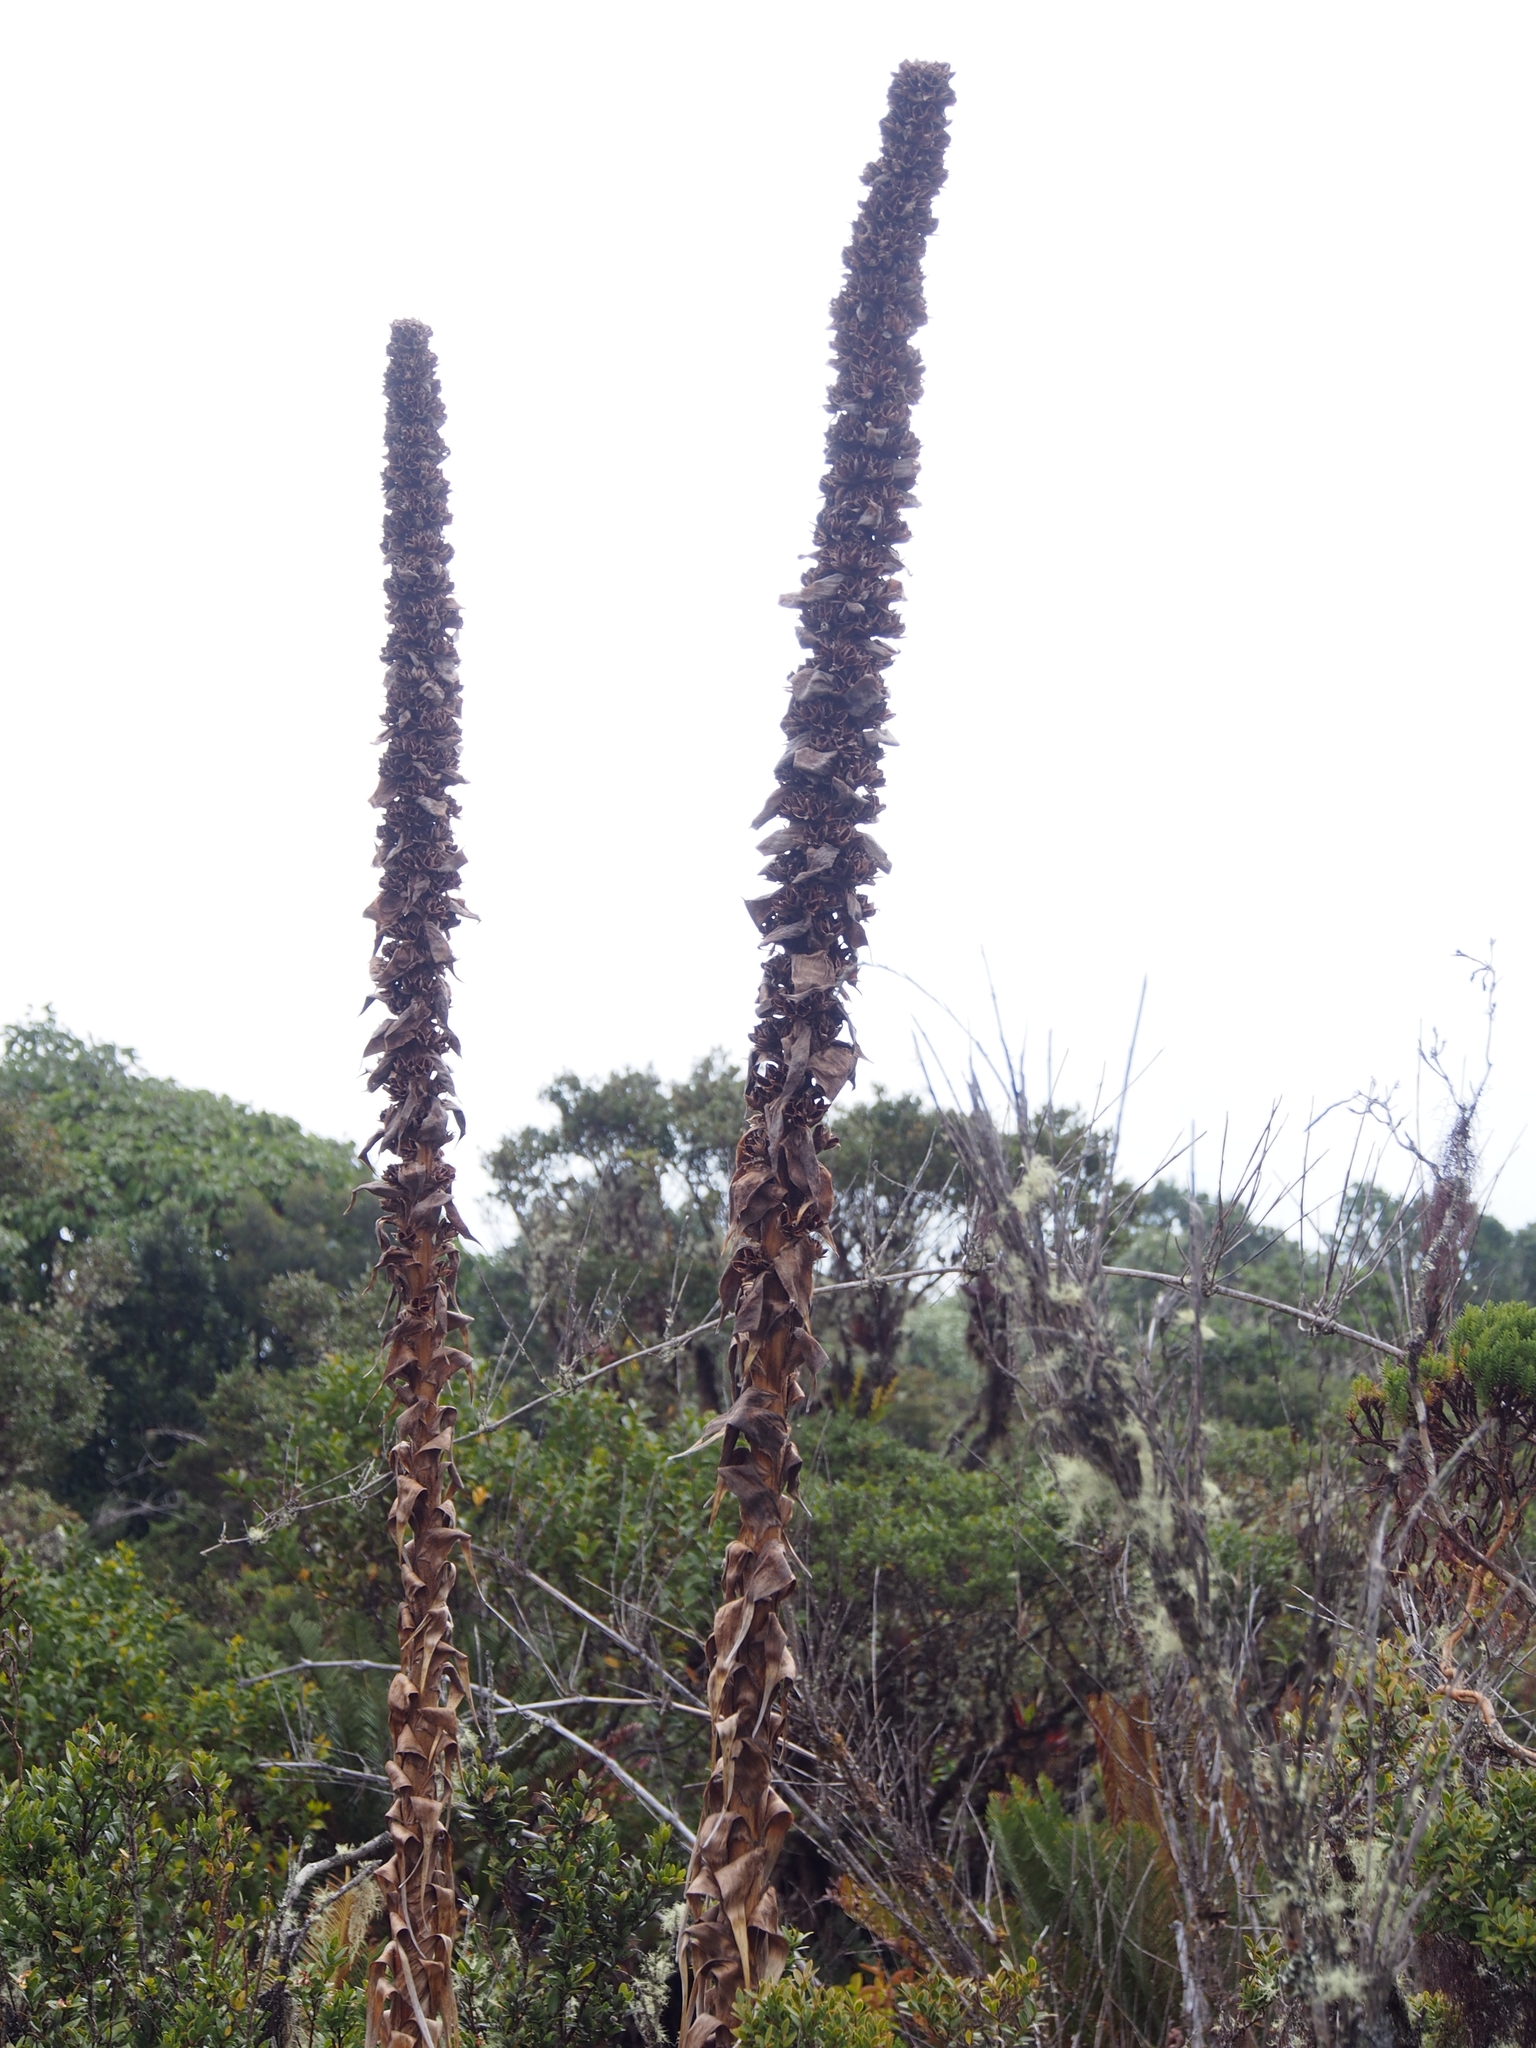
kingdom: Plantae
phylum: Tracheophyta
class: Liliopsida
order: Poales
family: Bromeliaceae
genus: Puya
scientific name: Puya dasylirioides
